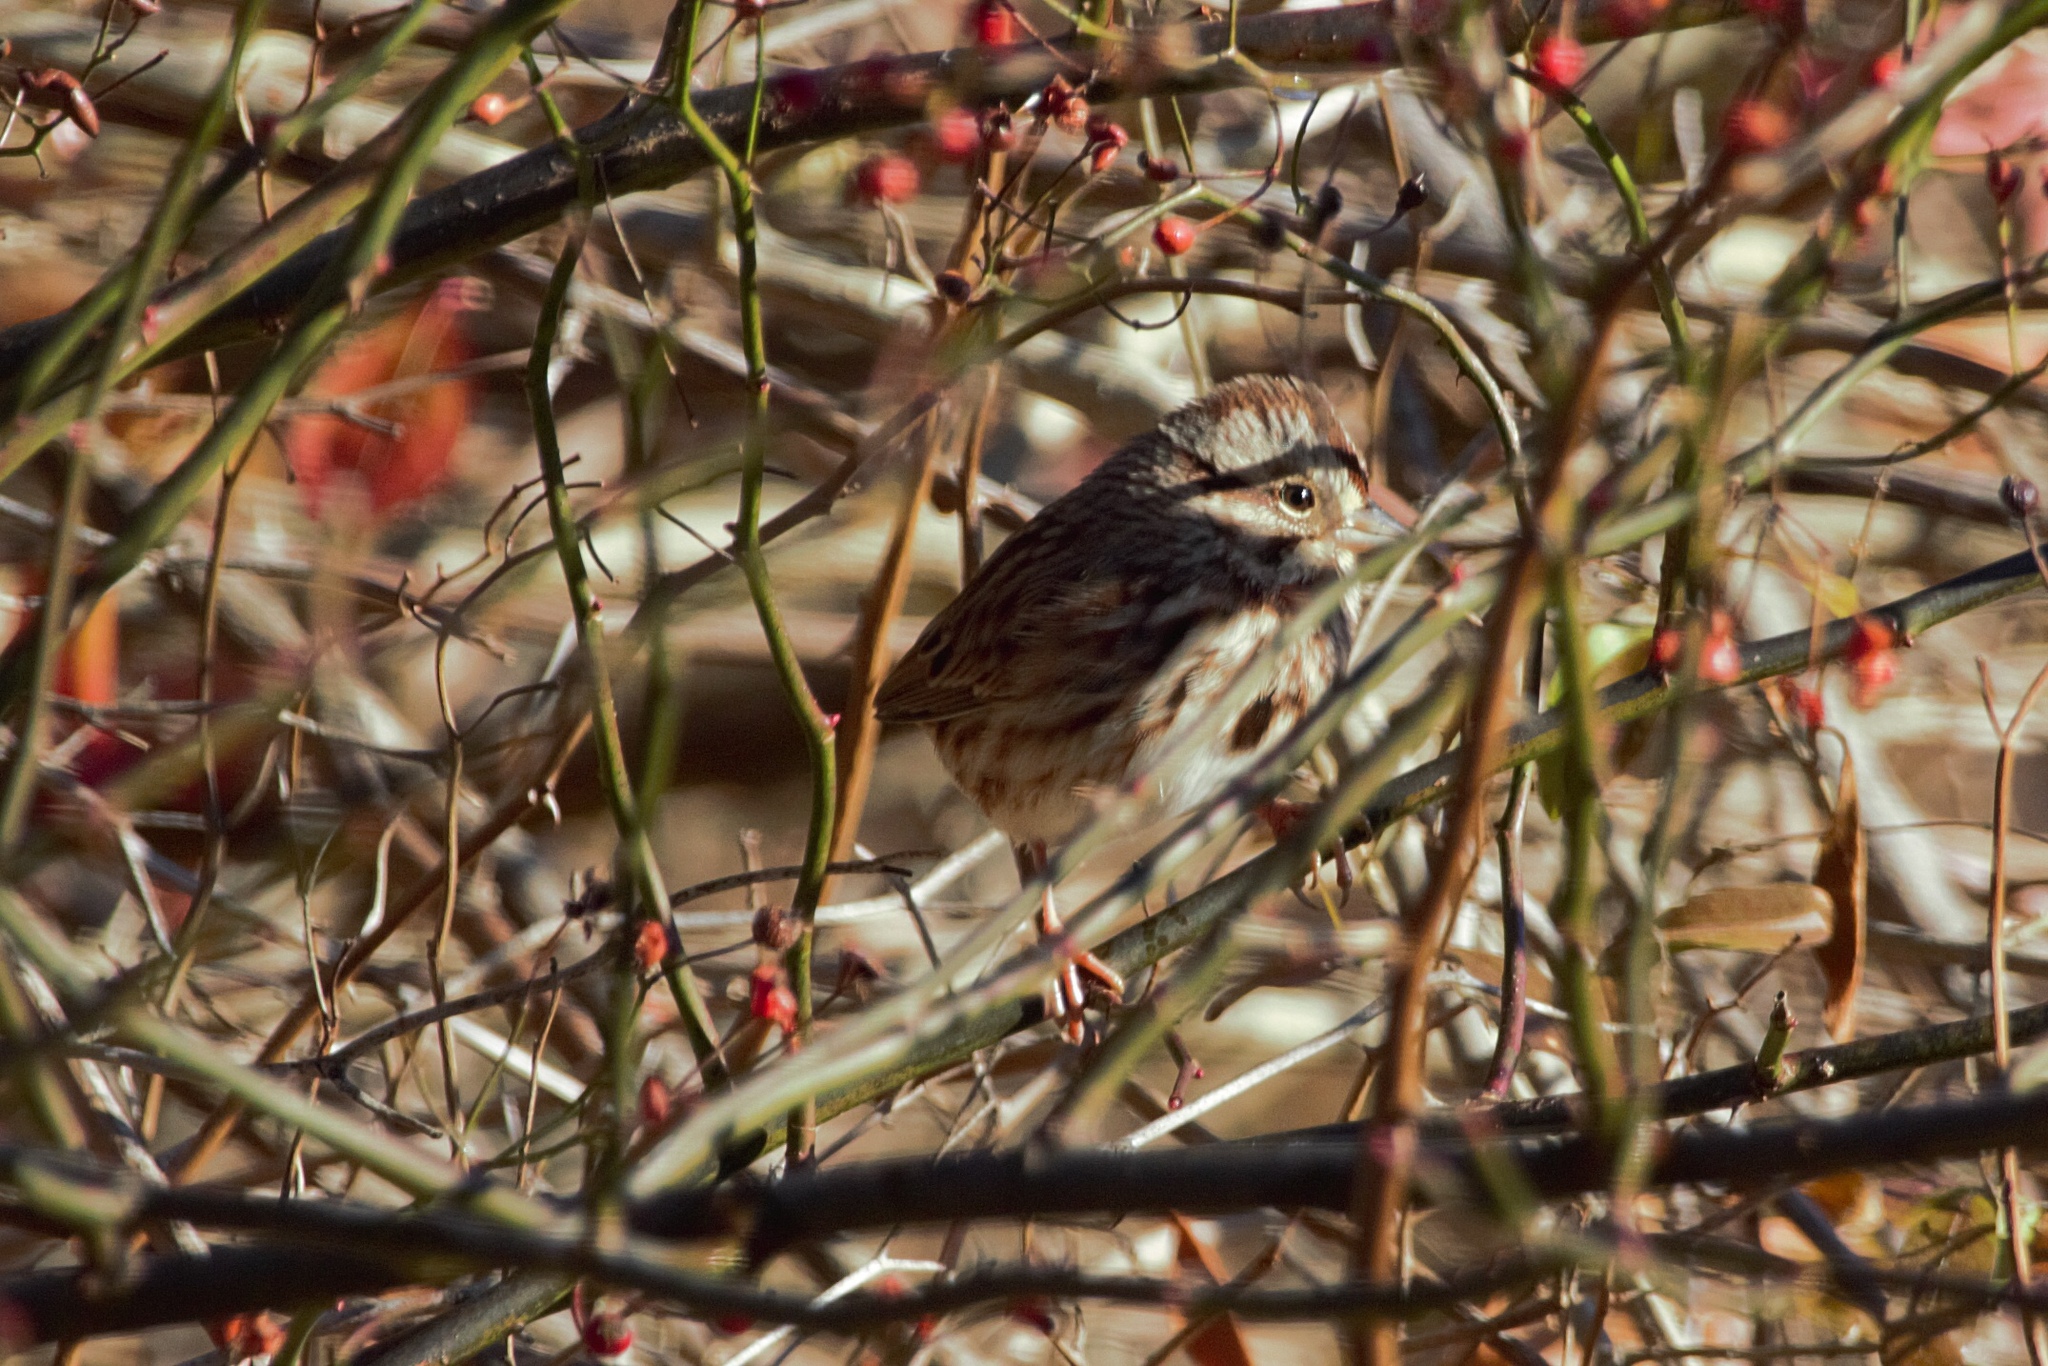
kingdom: Animalia
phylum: Chordata
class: Aves
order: Passeriformes
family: Passerellidae
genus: Melospiza
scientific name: Melospiza melodia
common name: Song sparrow
